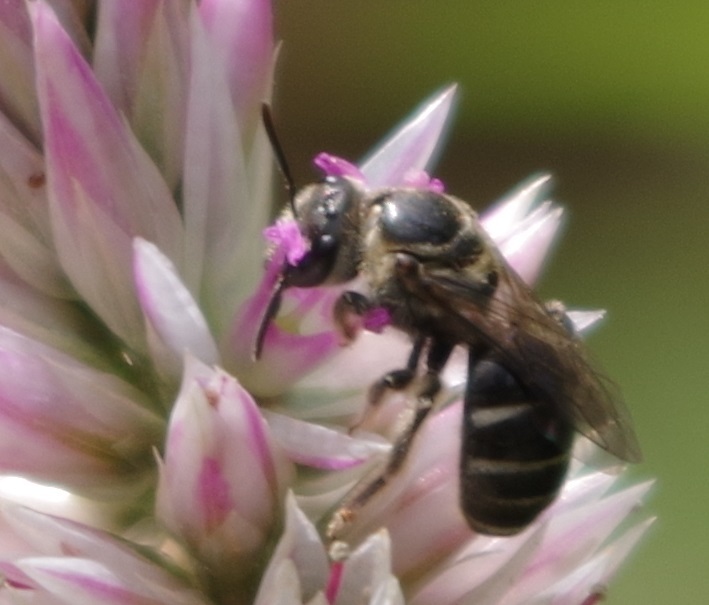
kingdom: Animalia
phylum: Arthropoda
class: Insecta
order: Hymenoptera
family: Halictidae
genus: Lasioglossum
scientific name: Lasioglossum albescens
